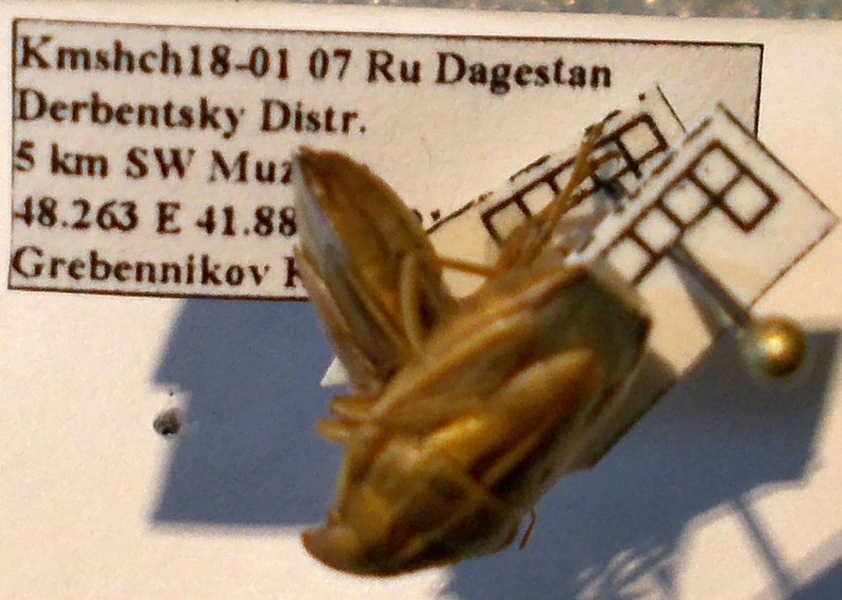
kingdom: Animalia
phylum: Arthropoda
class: Insecta
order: Hemiptera
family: Pentatomidae
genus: Aelia
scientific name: Aelia
